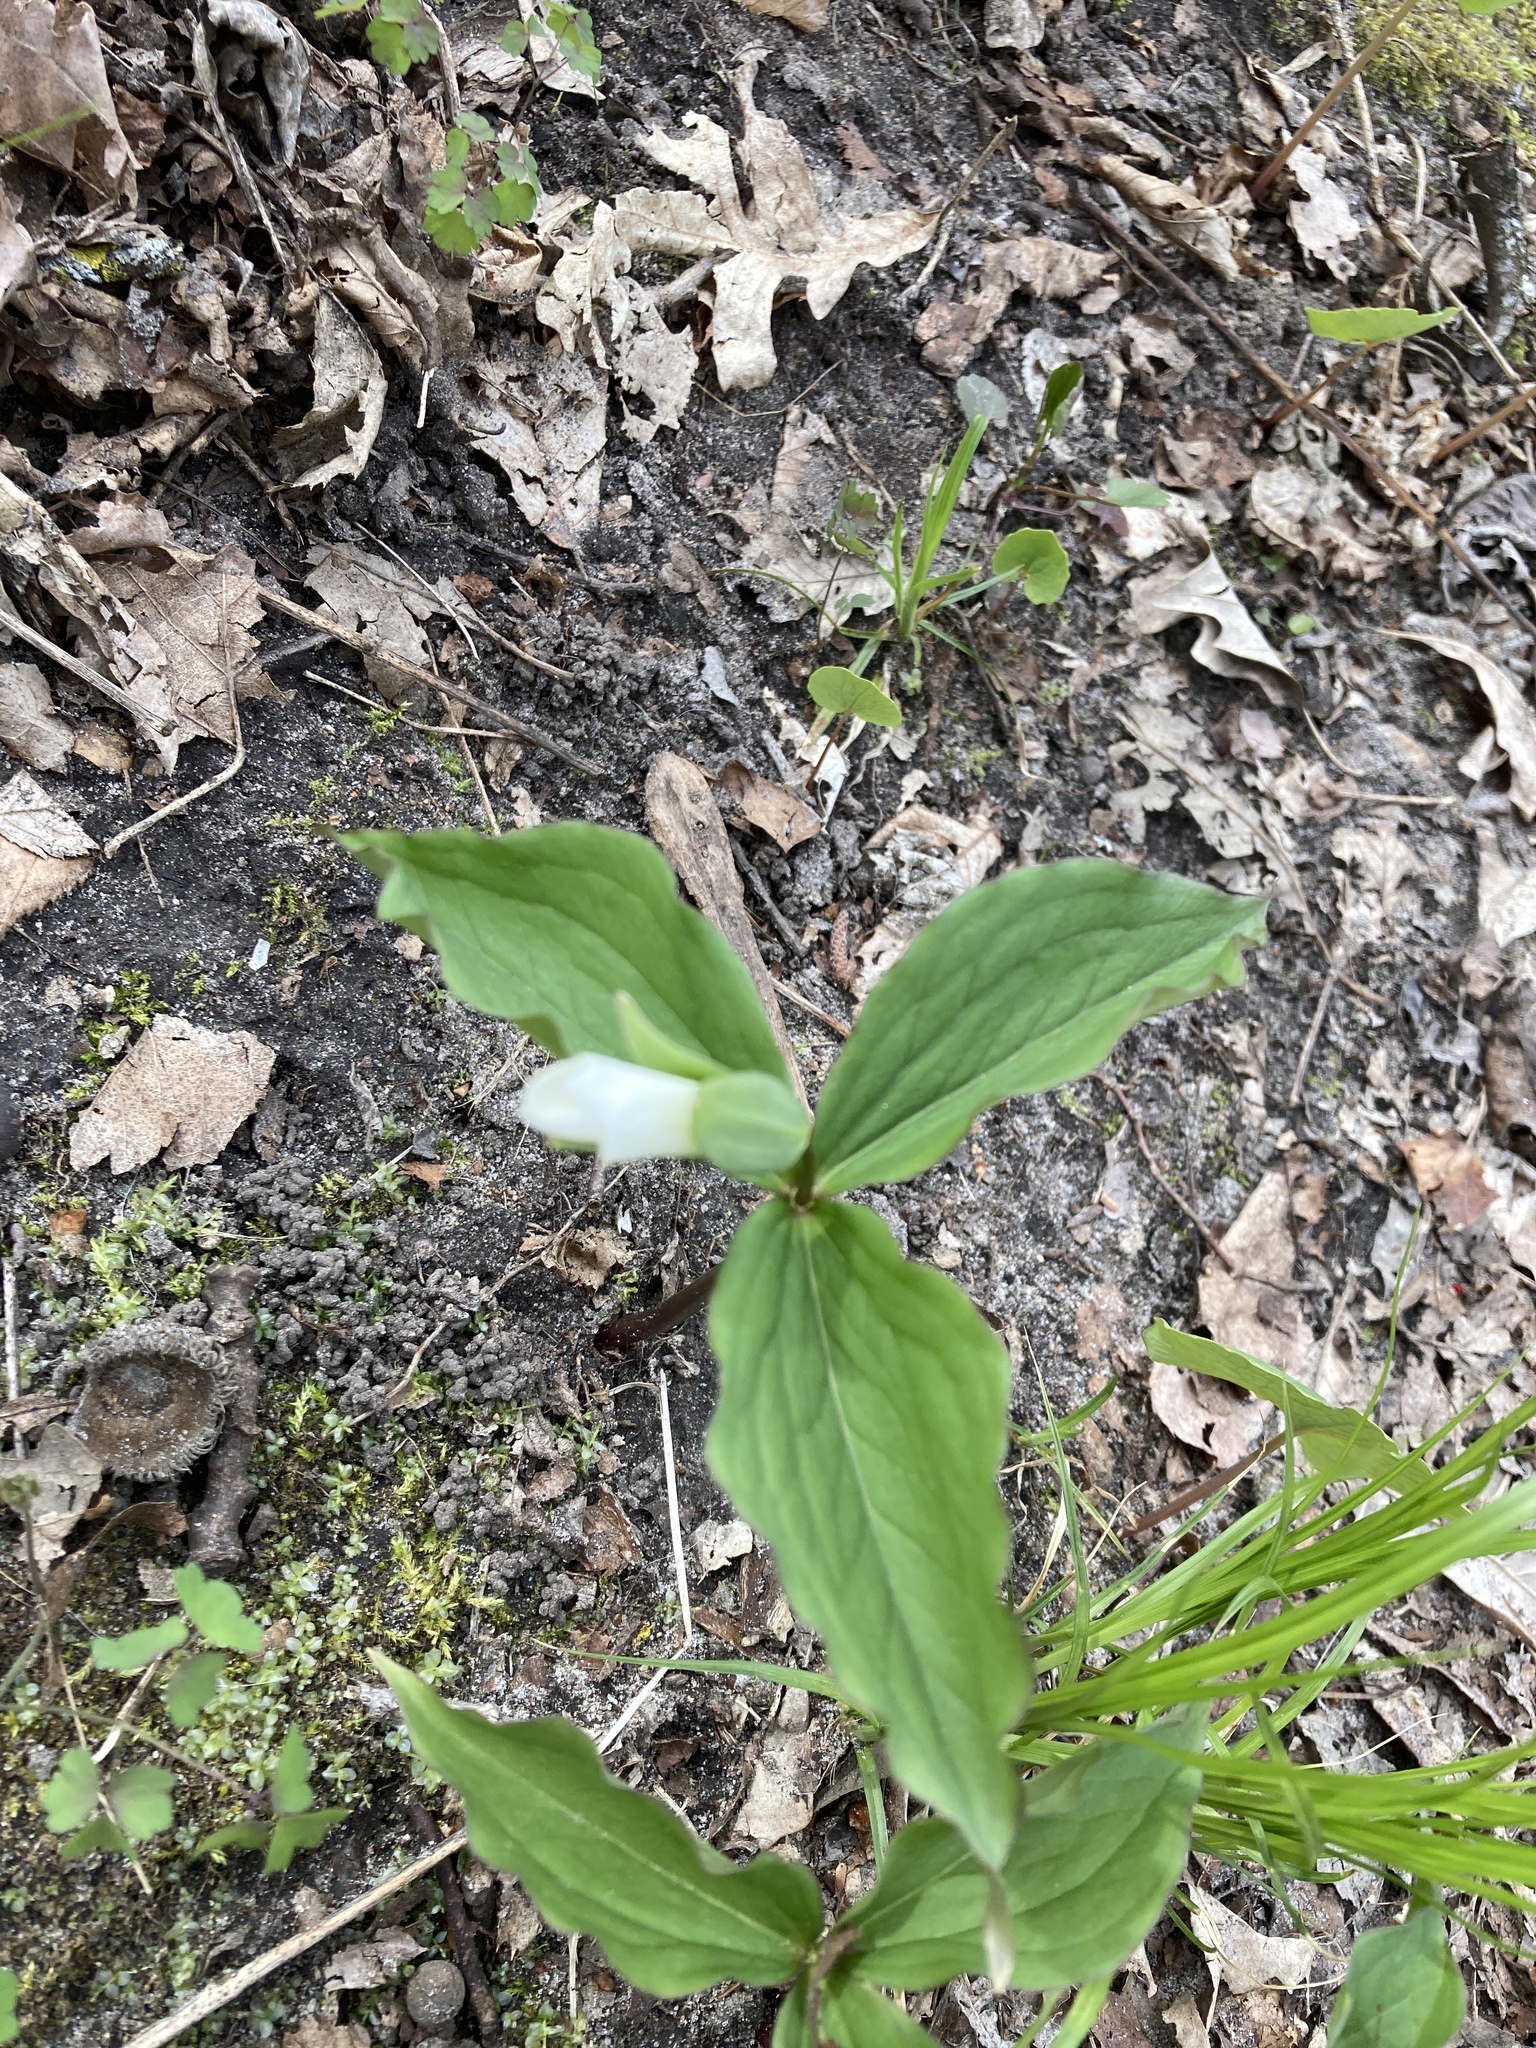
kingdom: Plantae
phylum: Tracheophyta
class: Liliopsida
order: Liliales
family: Melanthiaceae
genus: Trillium
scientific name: Trillium grandiflorum
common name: Great white trillium
